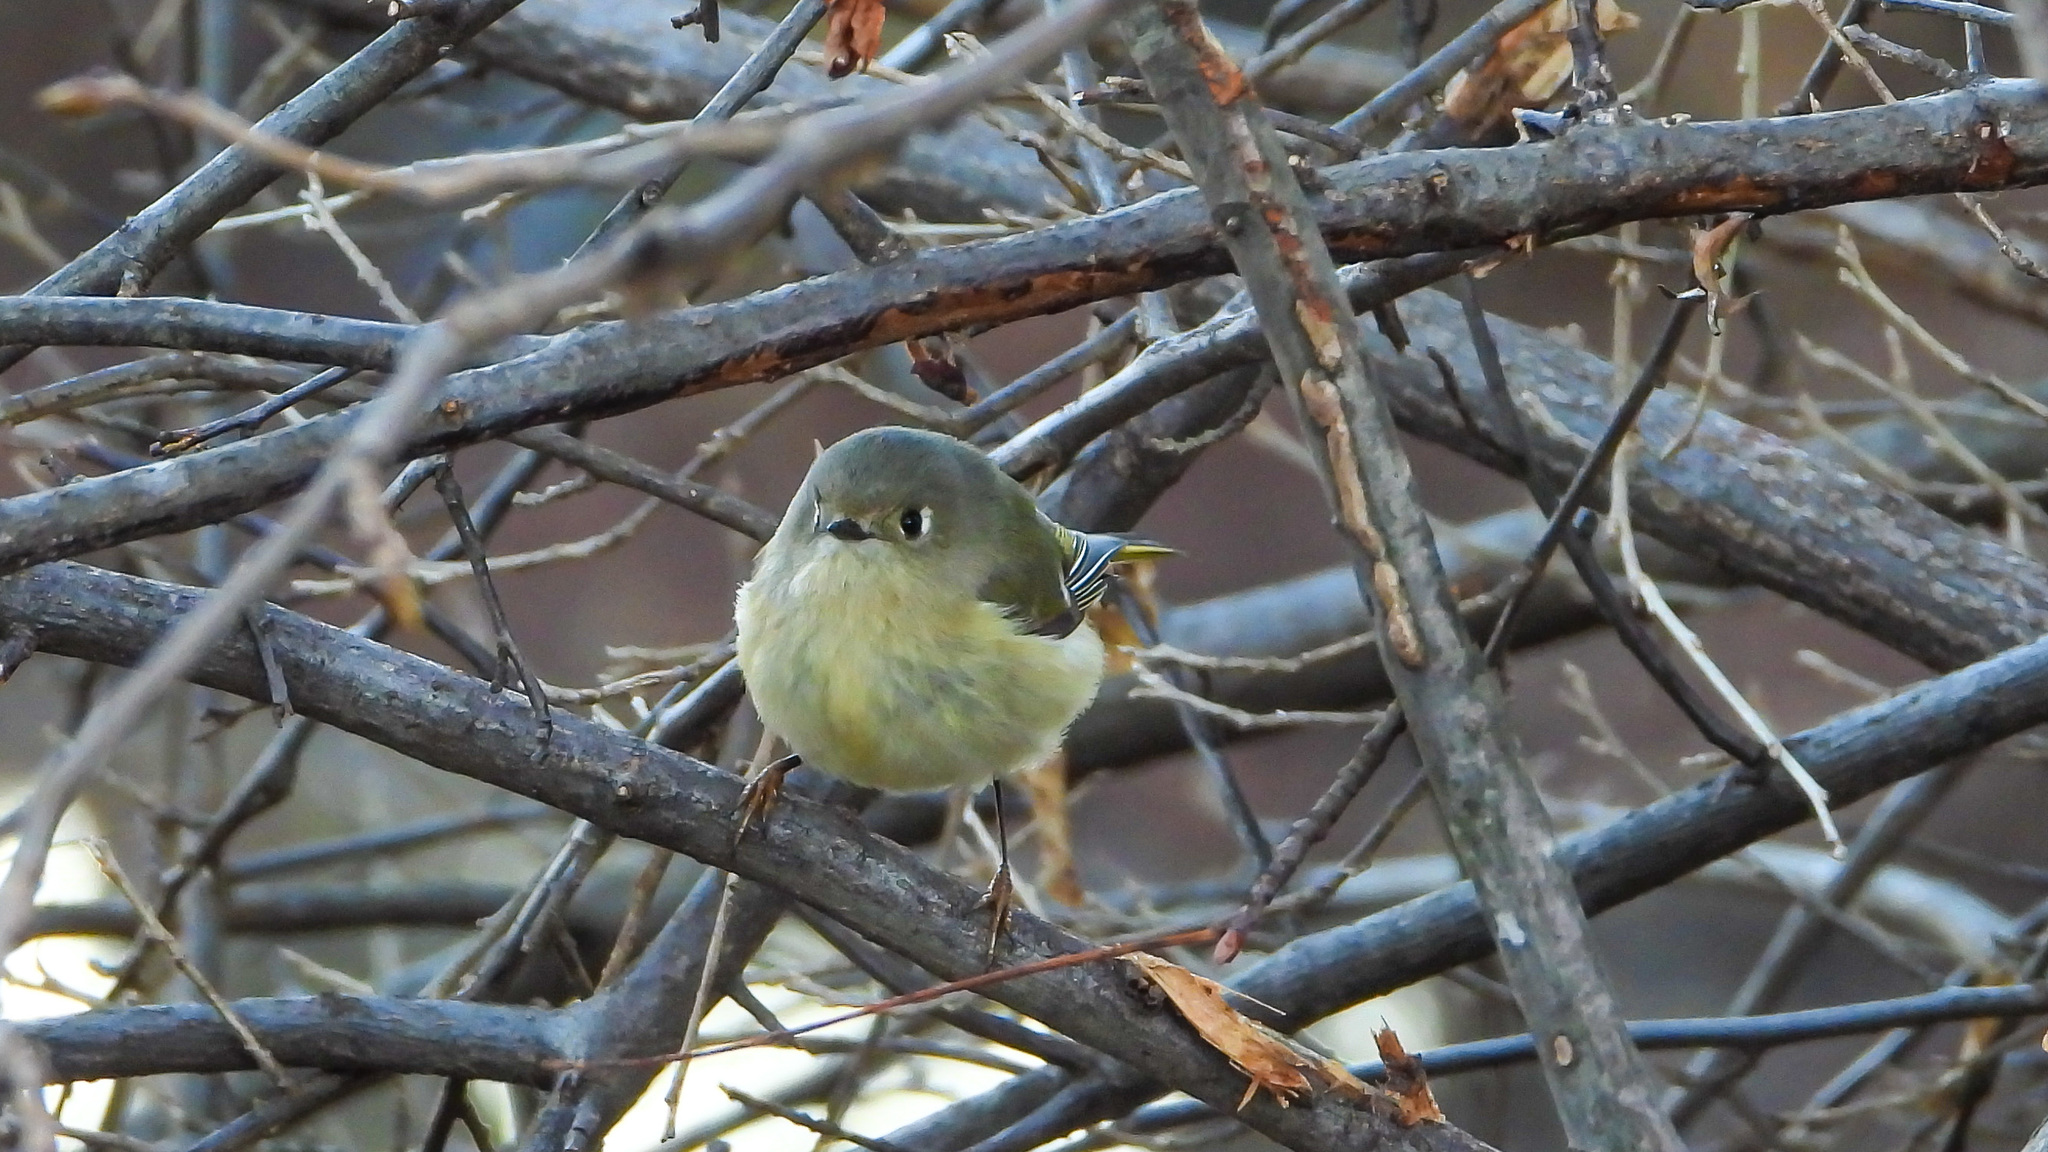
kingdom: Animalia
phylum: Chordata
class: Aves
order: Passeriformes
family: Regulidae
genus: Regulus
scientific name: Regulus calendula
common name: Ruby-crowned kinglet
